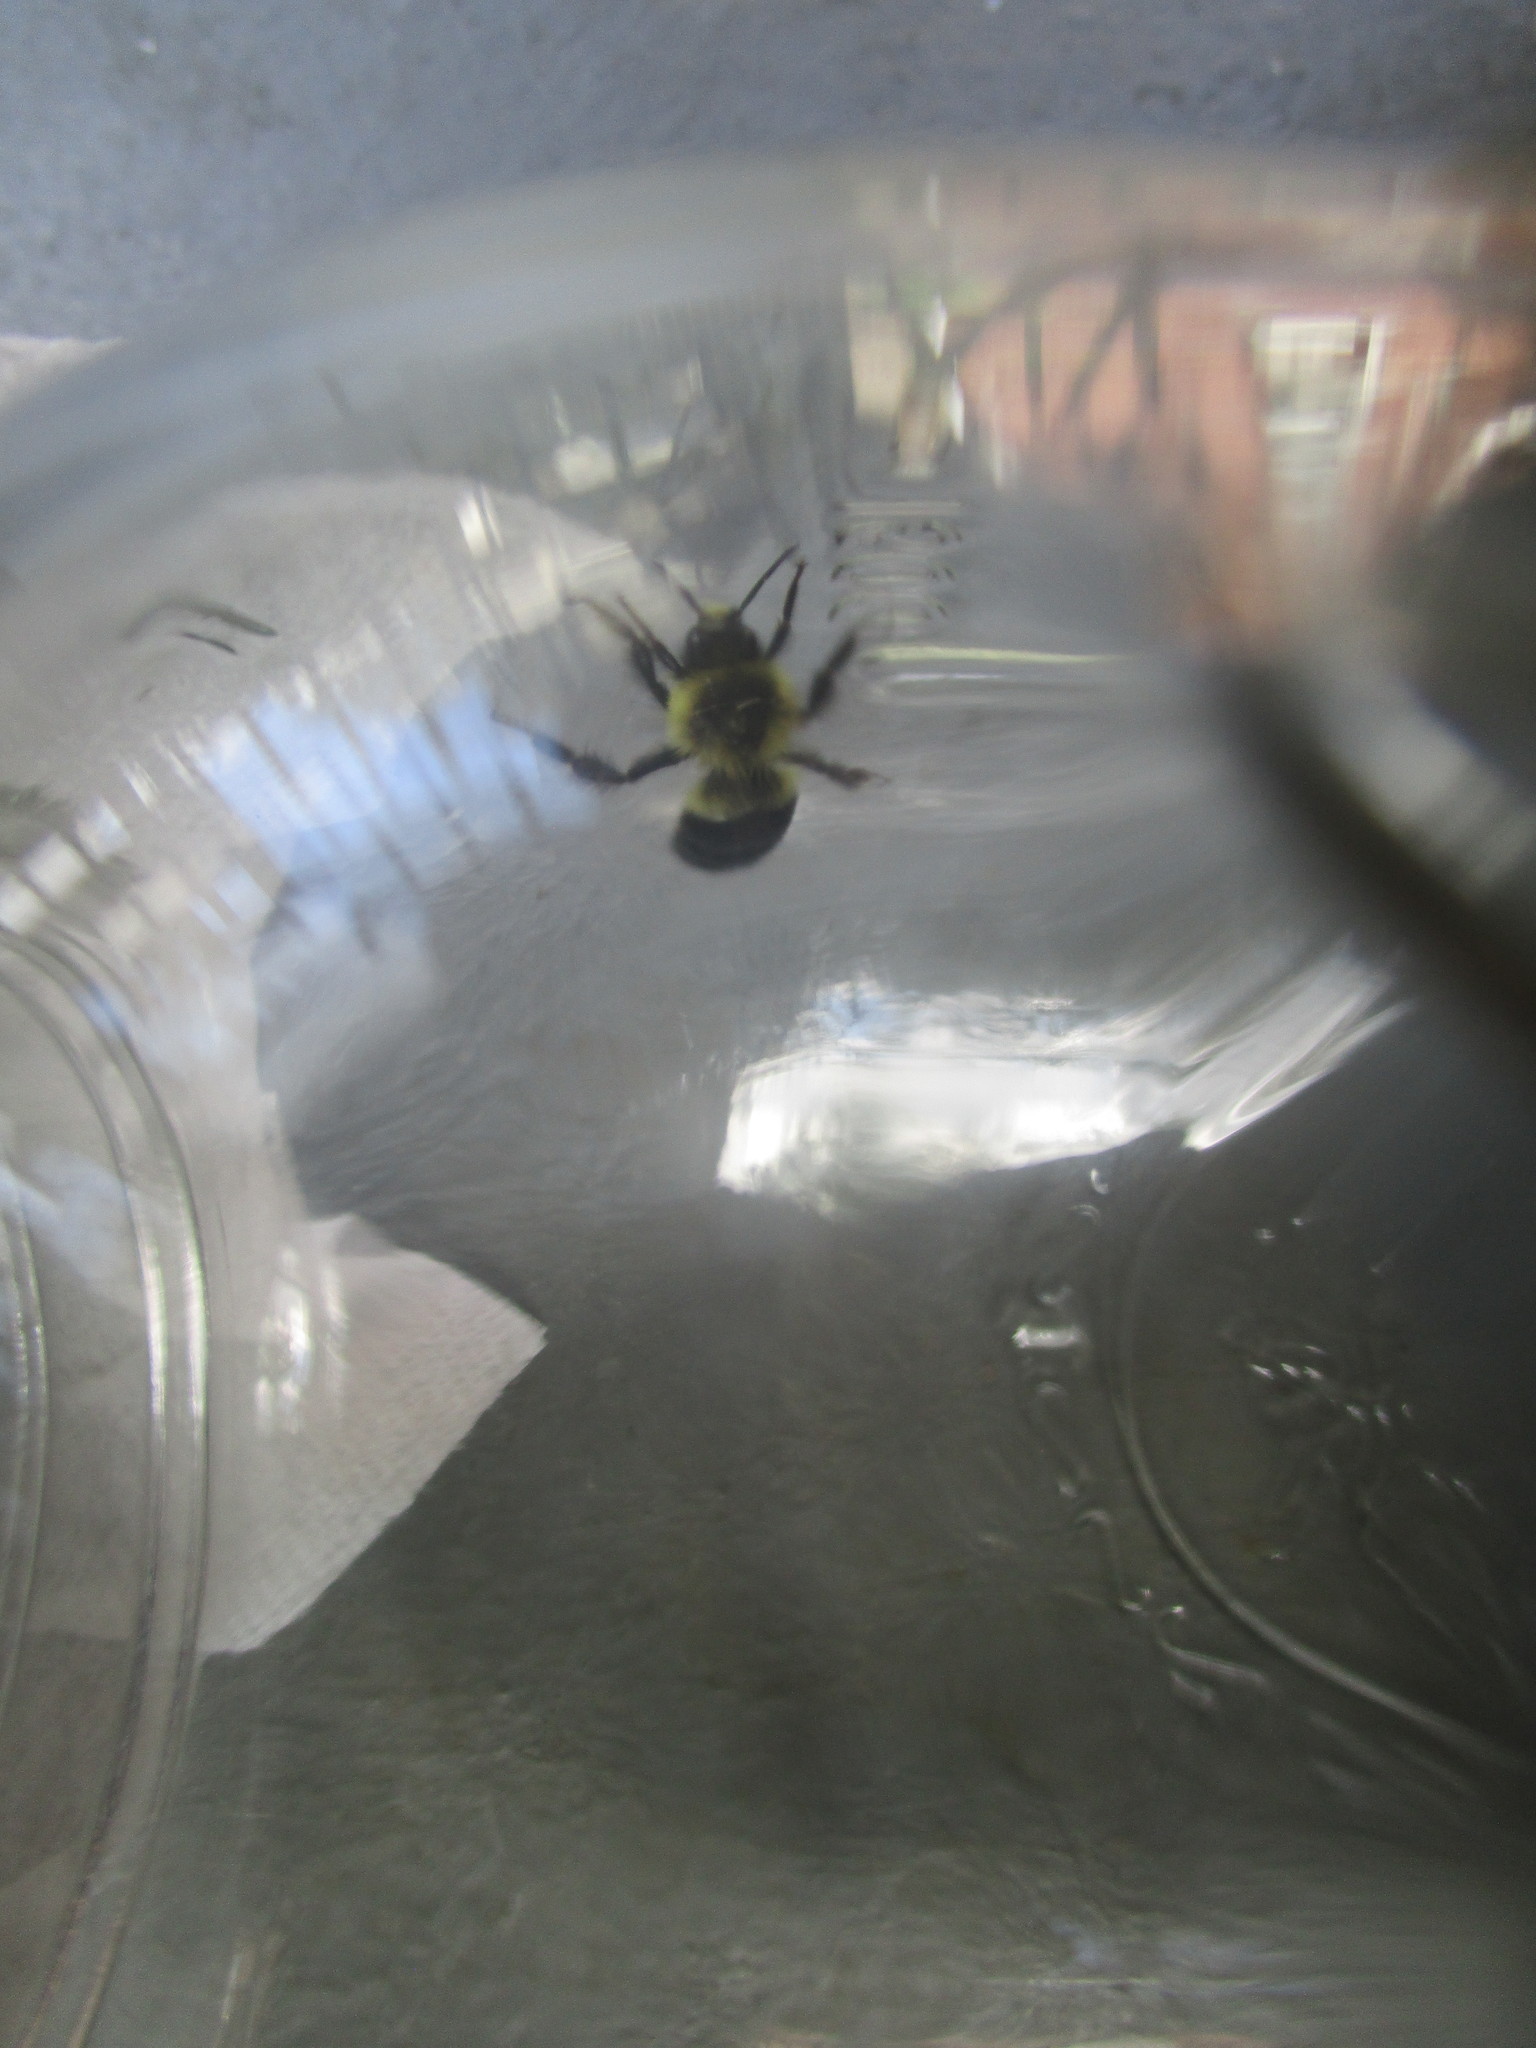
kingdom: Animalia
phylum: Arthropoda
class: Insecta
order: Hymenoptera
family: Apidae
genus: Bombus
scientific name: Bombus impatiens
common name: Common eastern bumble bee
